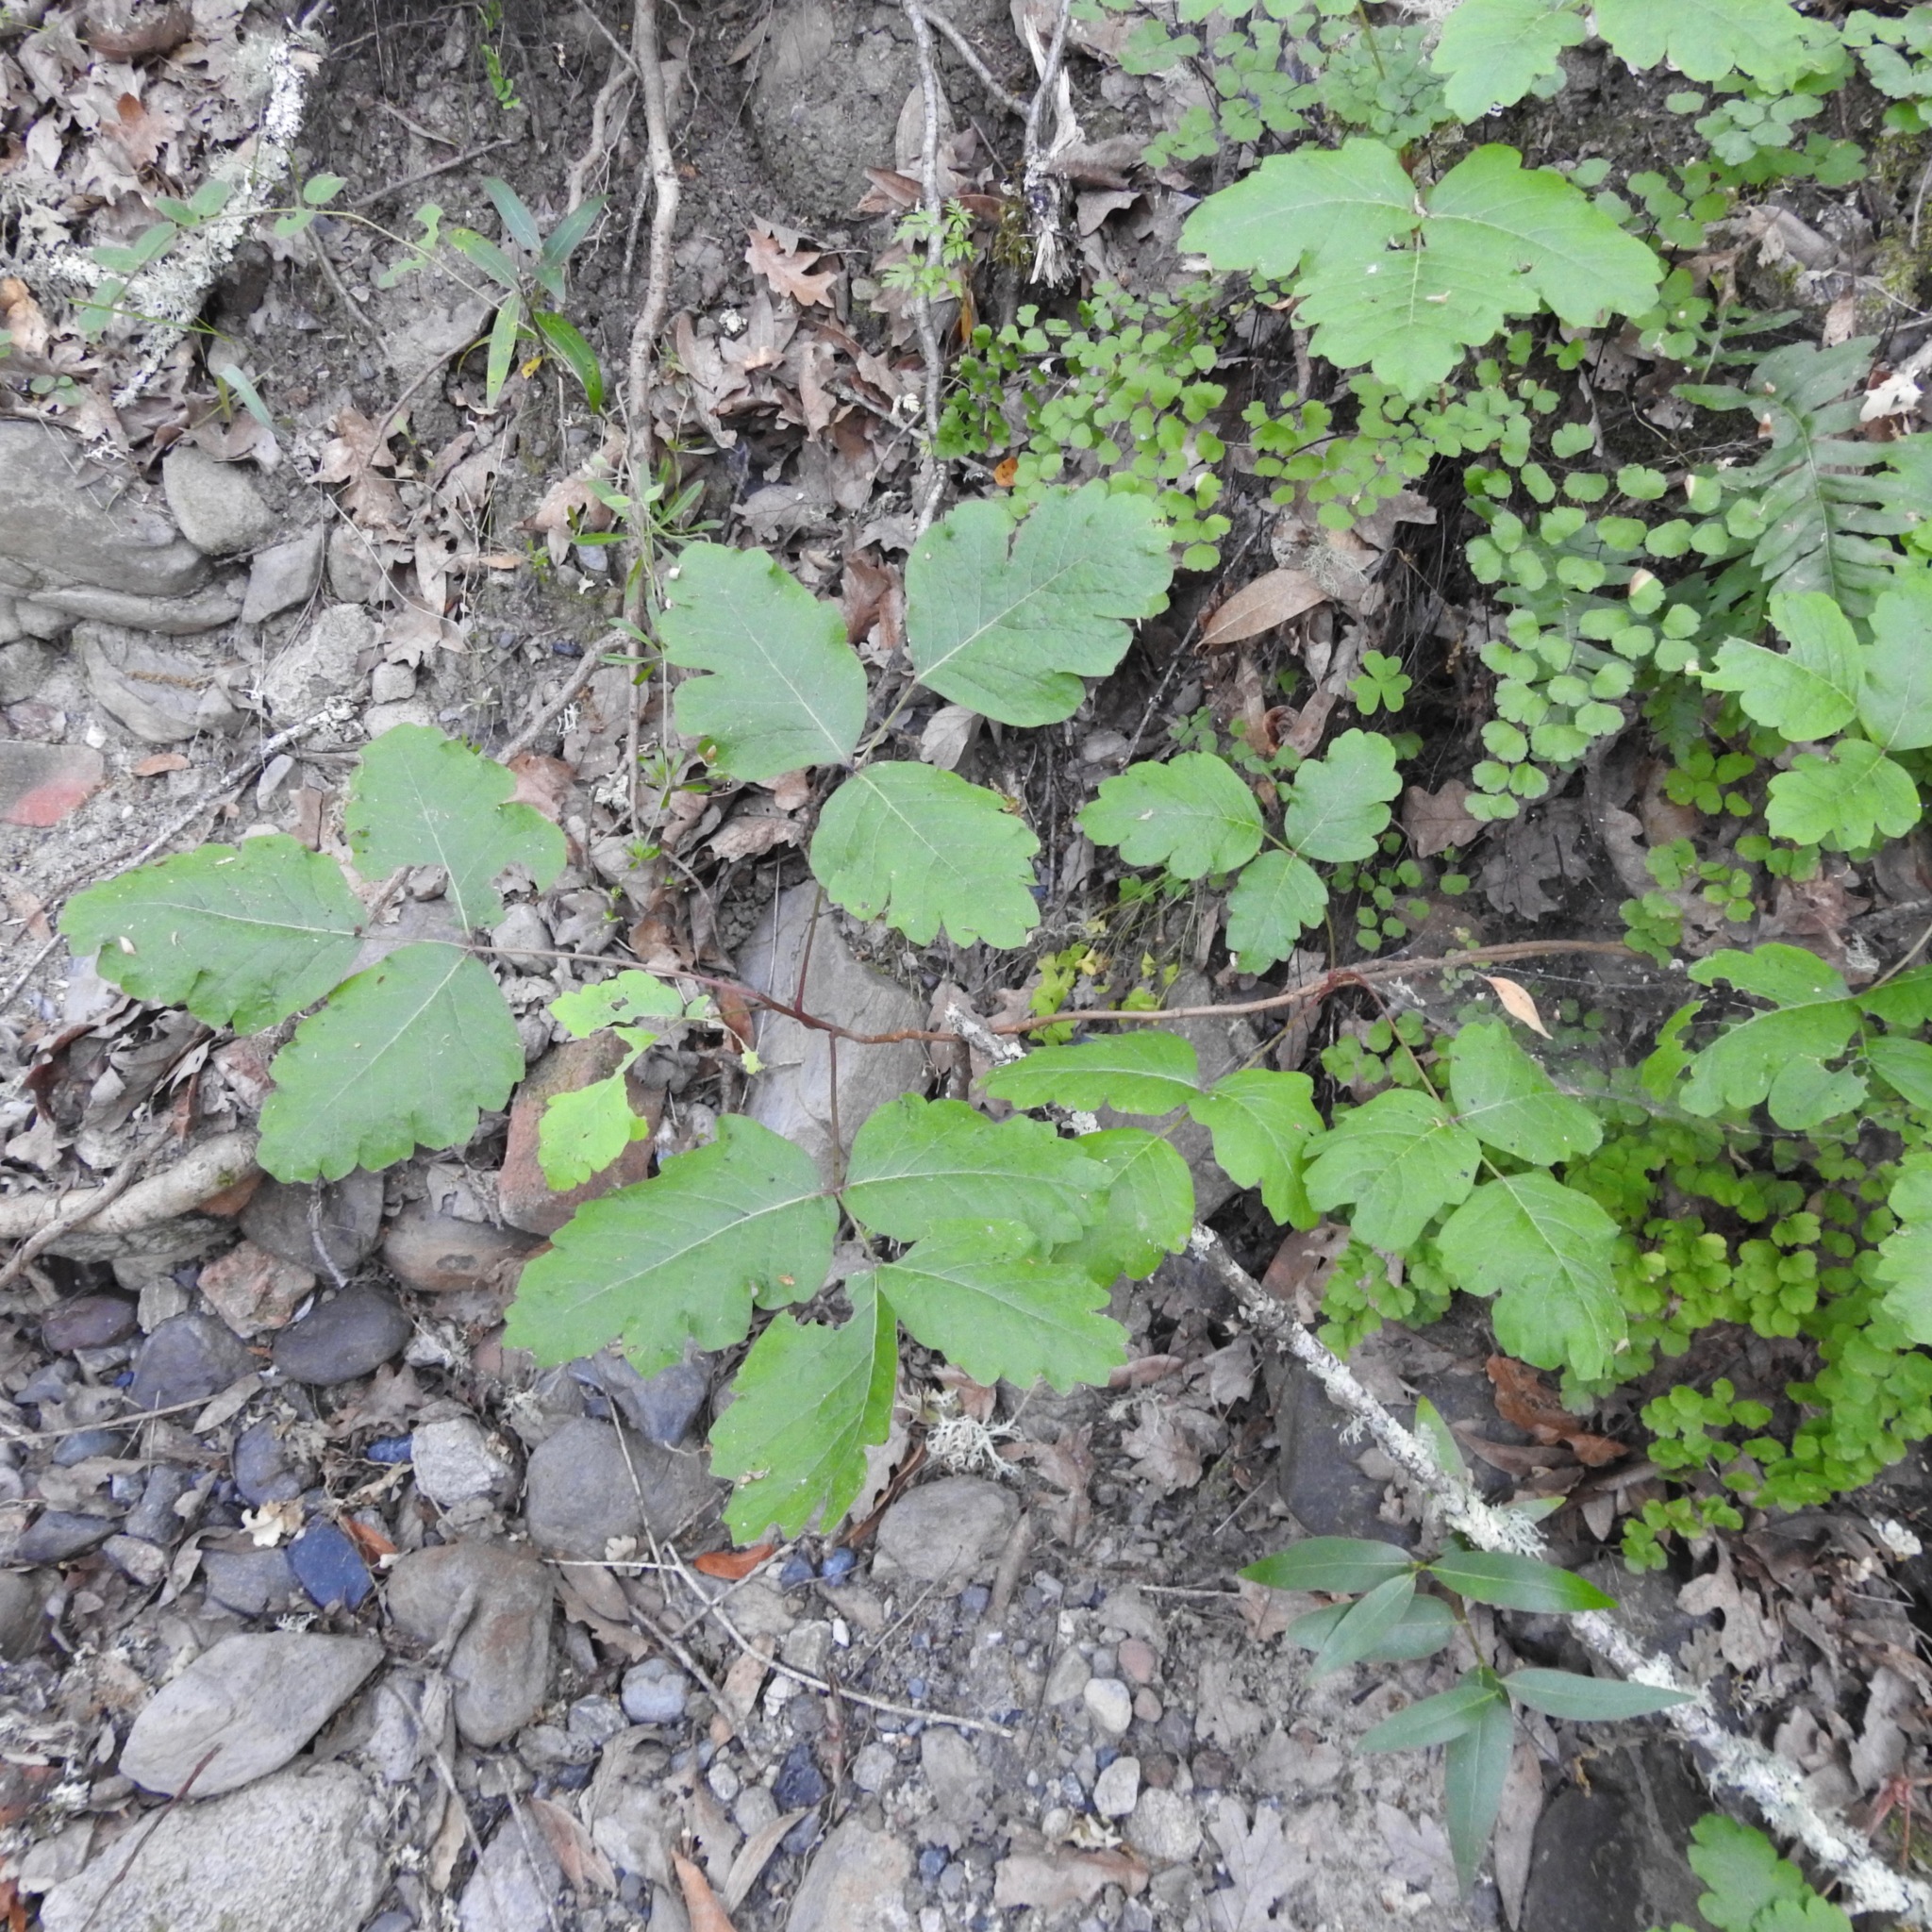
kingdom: Plantae
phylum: Tracheophyta
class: Magnoliopsida
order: Sapindales
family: Anacardiaceae
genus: Toxicodendron
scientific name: Toxicodendron diversilobum
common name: Pacific poison-oak
